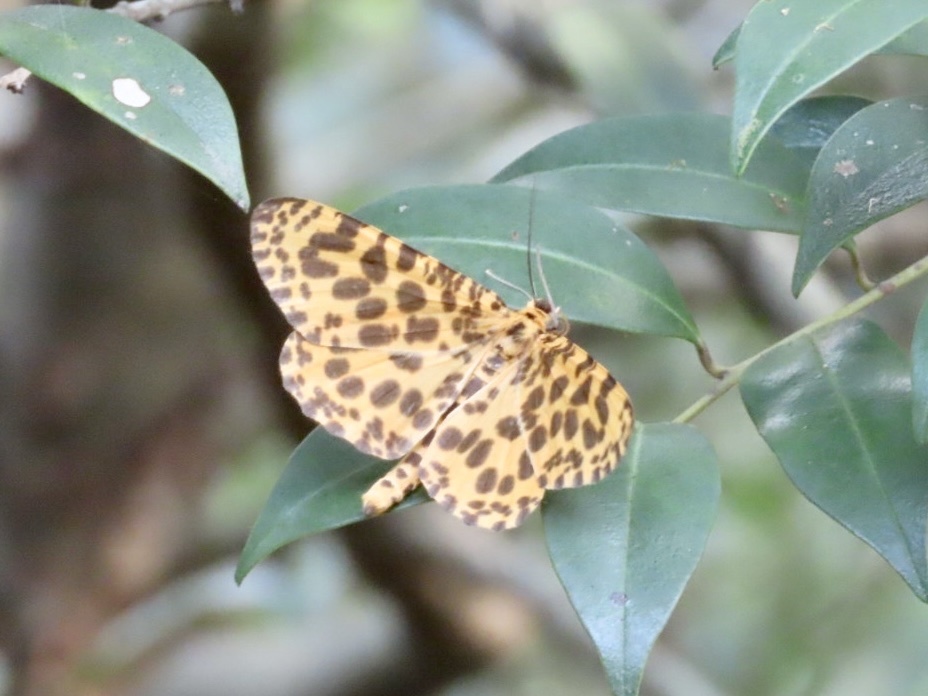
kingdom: Animalia
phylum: Arthropoda
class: Insecta
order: Lepidoptera
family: Geometridae
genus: Obeidia
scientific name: Obeidia Epobeidia tigrata
